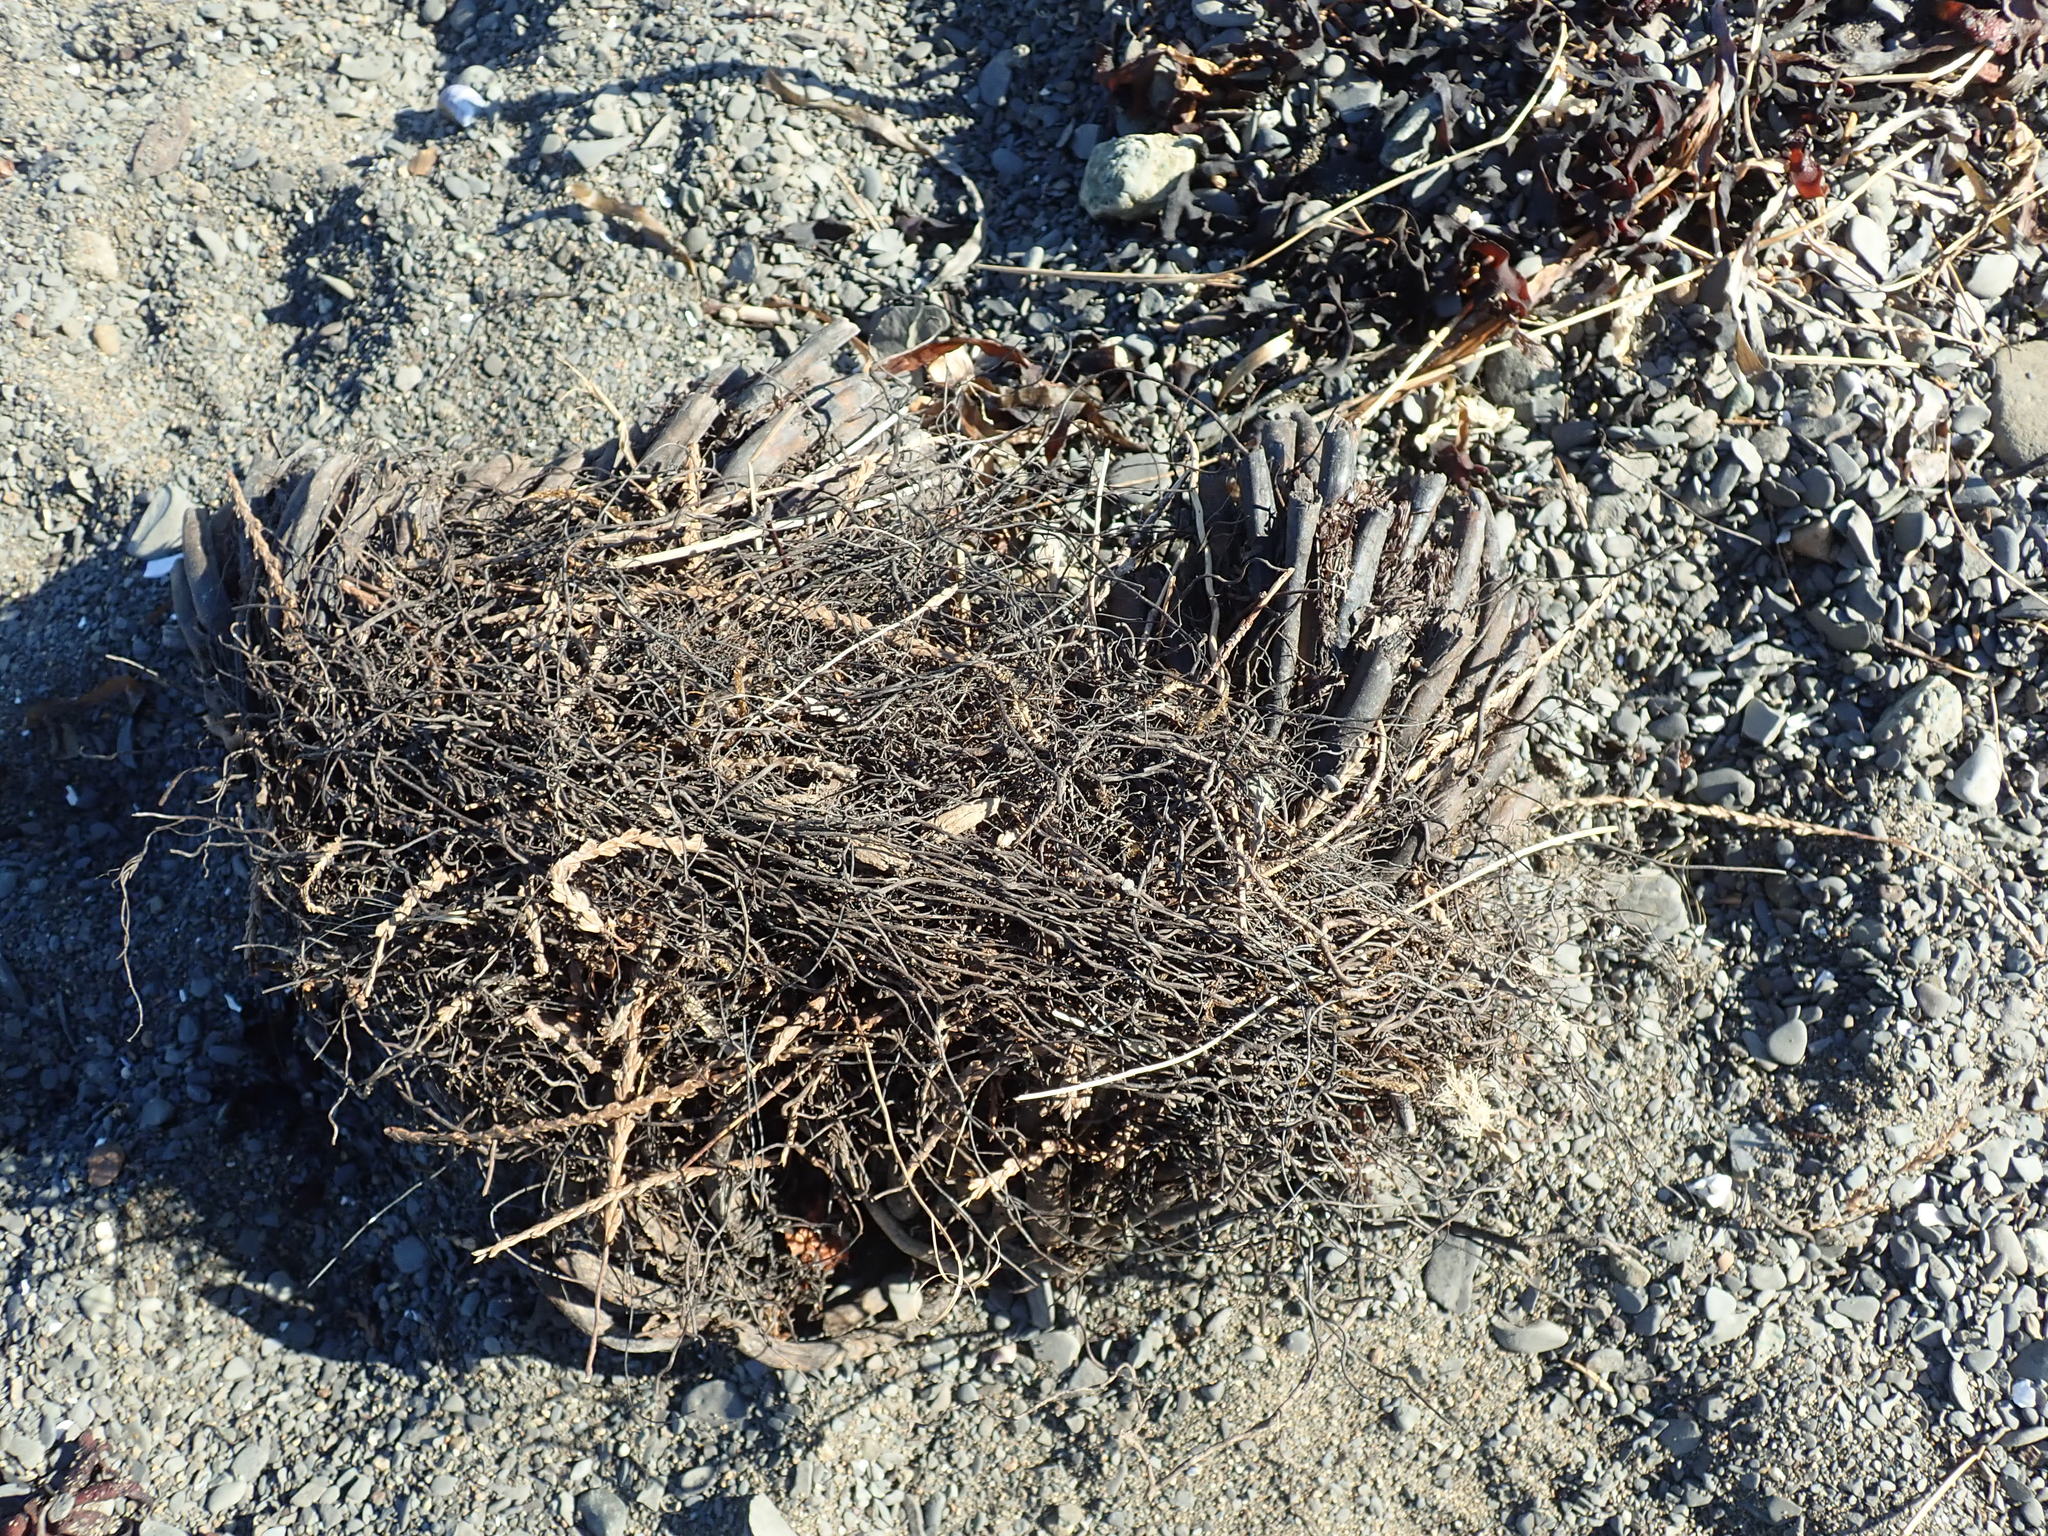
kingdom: Plantae
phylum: Tracheophyta
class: Polypodiopsida
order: Polypodiales
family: Dryopteridaceae
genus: Polystichum
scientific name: Polystichum munitum
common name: Western sword-fern
